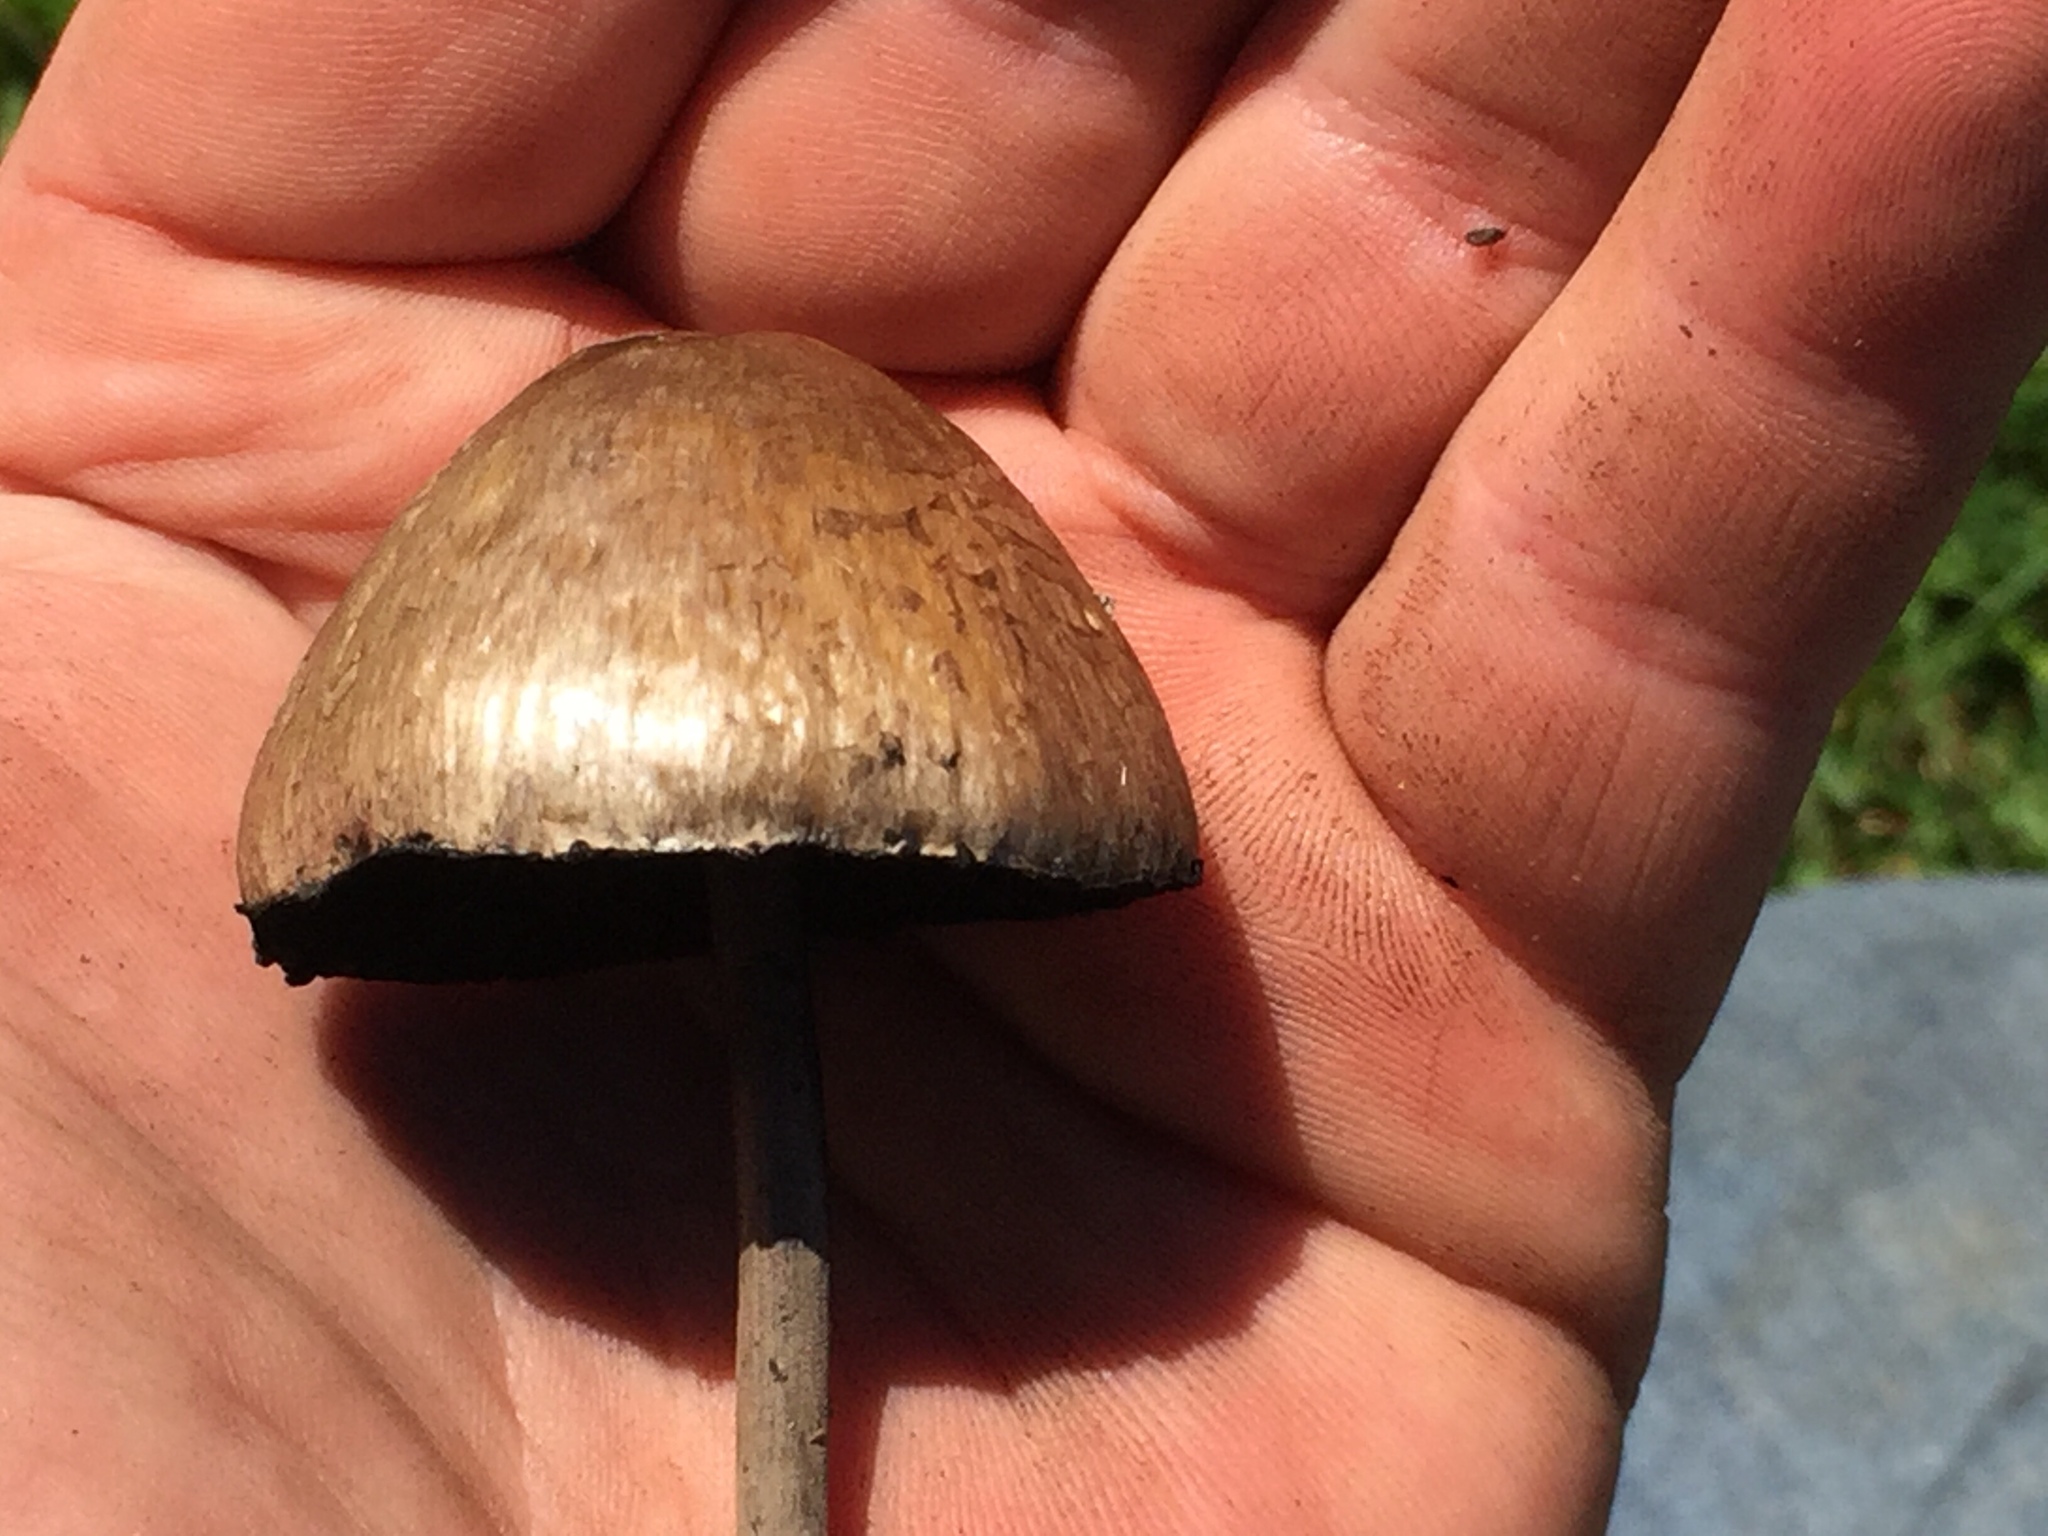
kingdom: Fungi
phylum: Basidiomycota
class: Agaricomycetes
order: Agaricales
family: Bolbitiaceae
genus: Panaeolus
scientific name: Panaeolus papilionaceus
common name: Petticoat mottlegill
